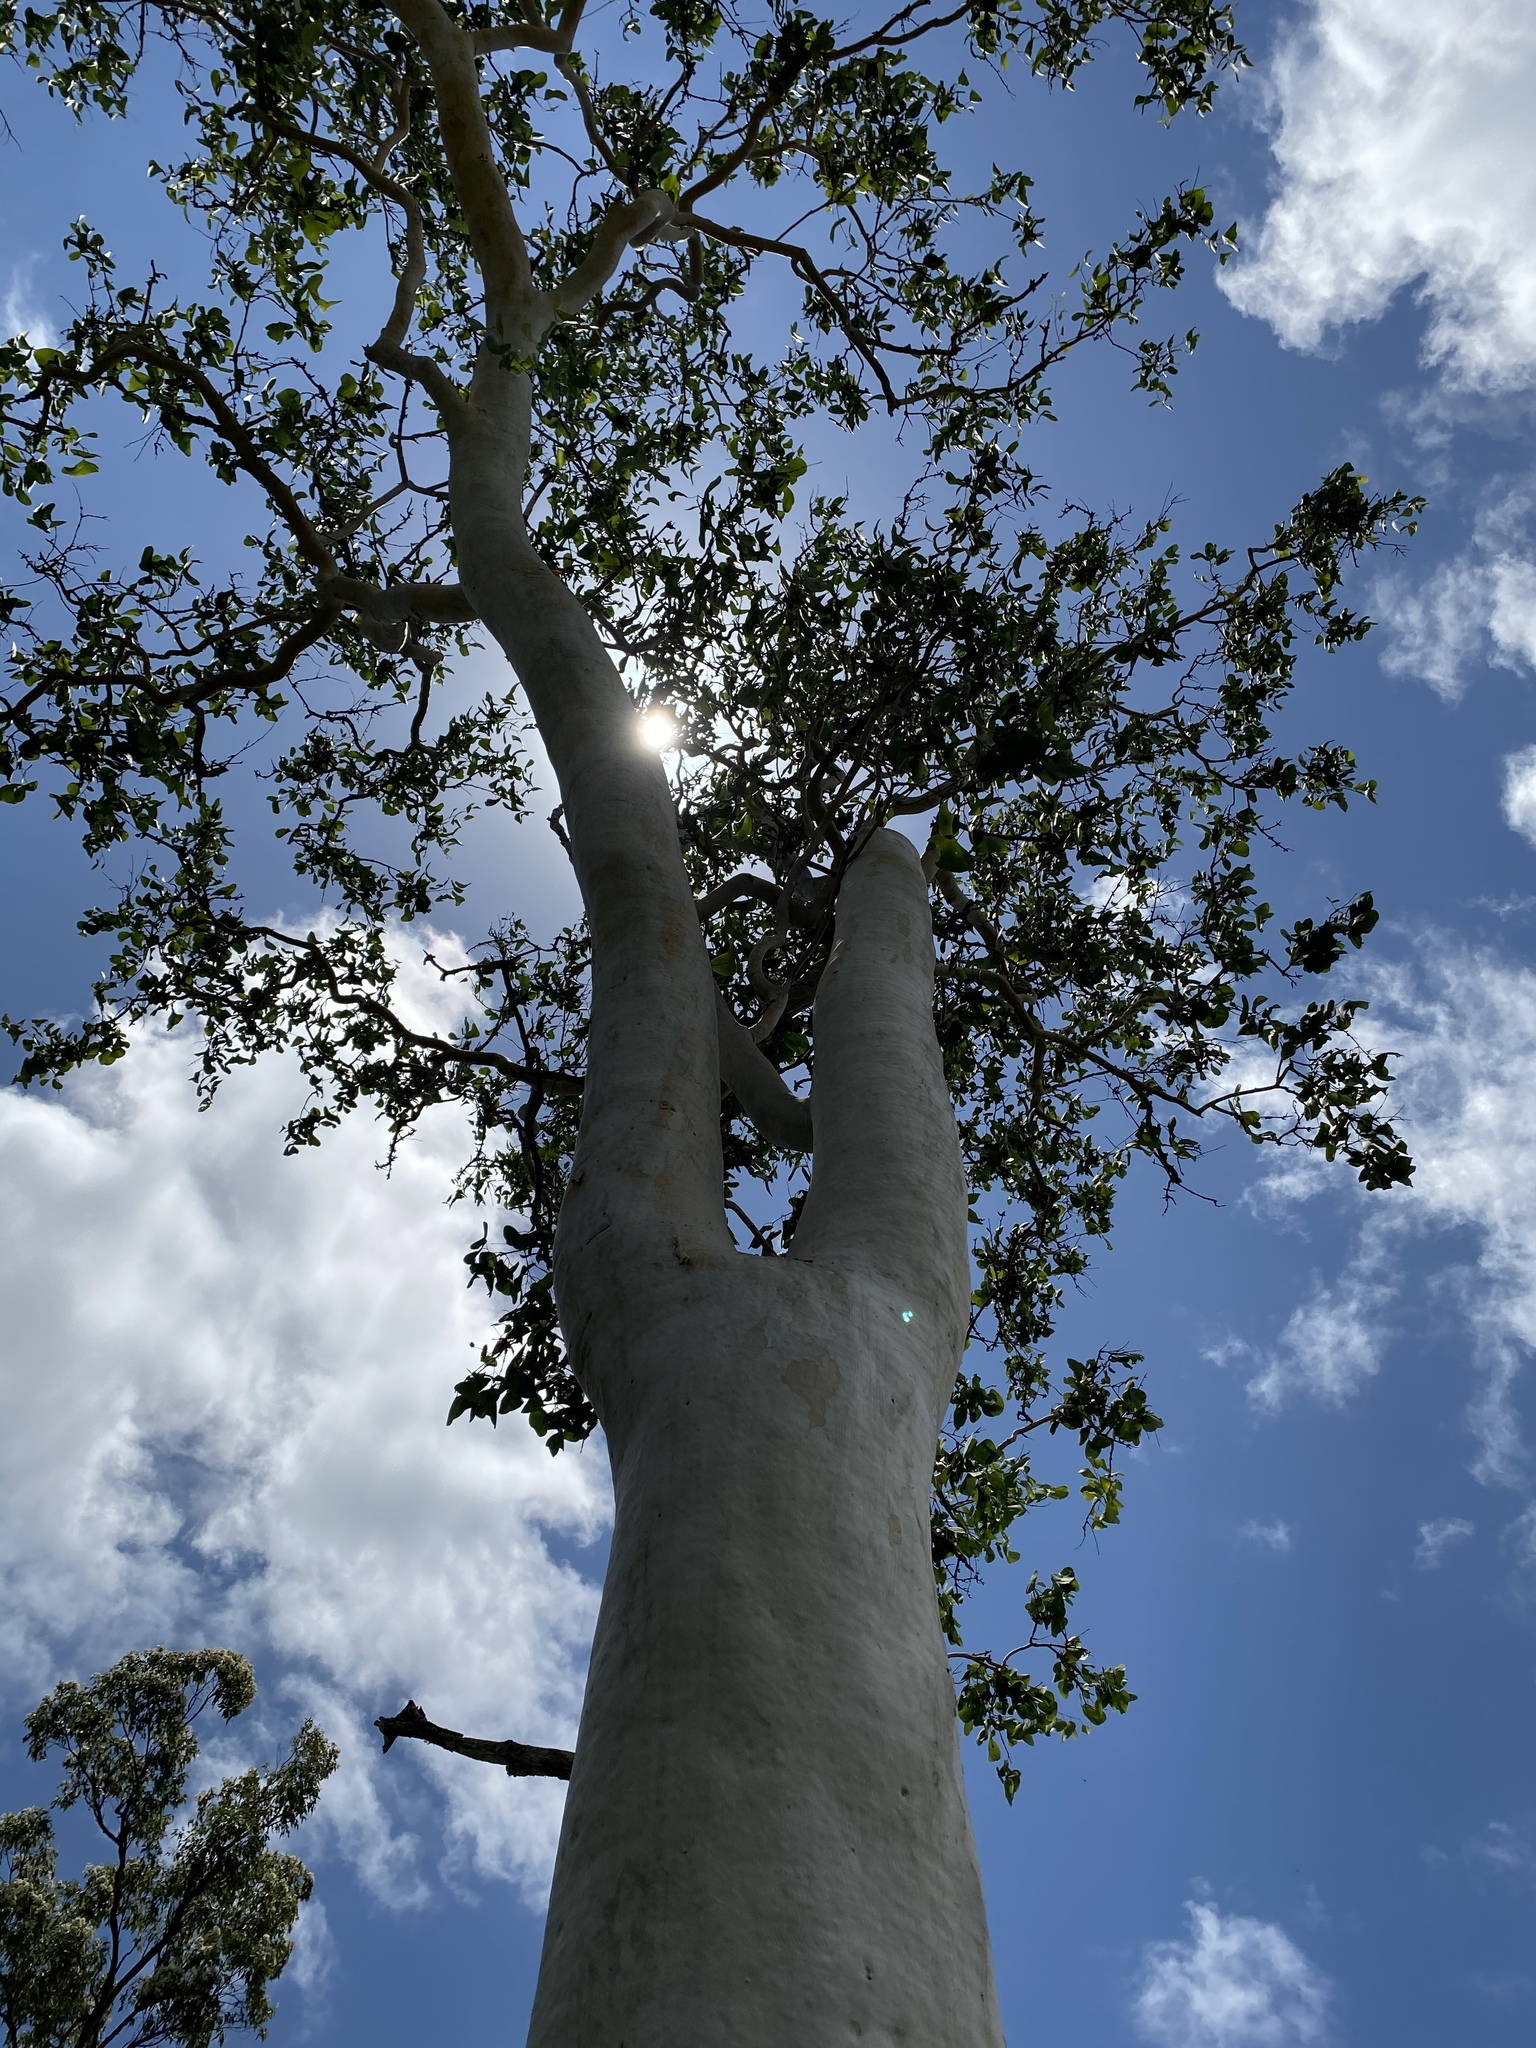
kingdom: Plantae
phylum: Tracheophyta
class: Magnoliopsida
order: Myrtales
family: Myrtaceae
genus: Eucalyptus
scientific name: Eucalyptus platyphylla
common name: Poplar-gum
